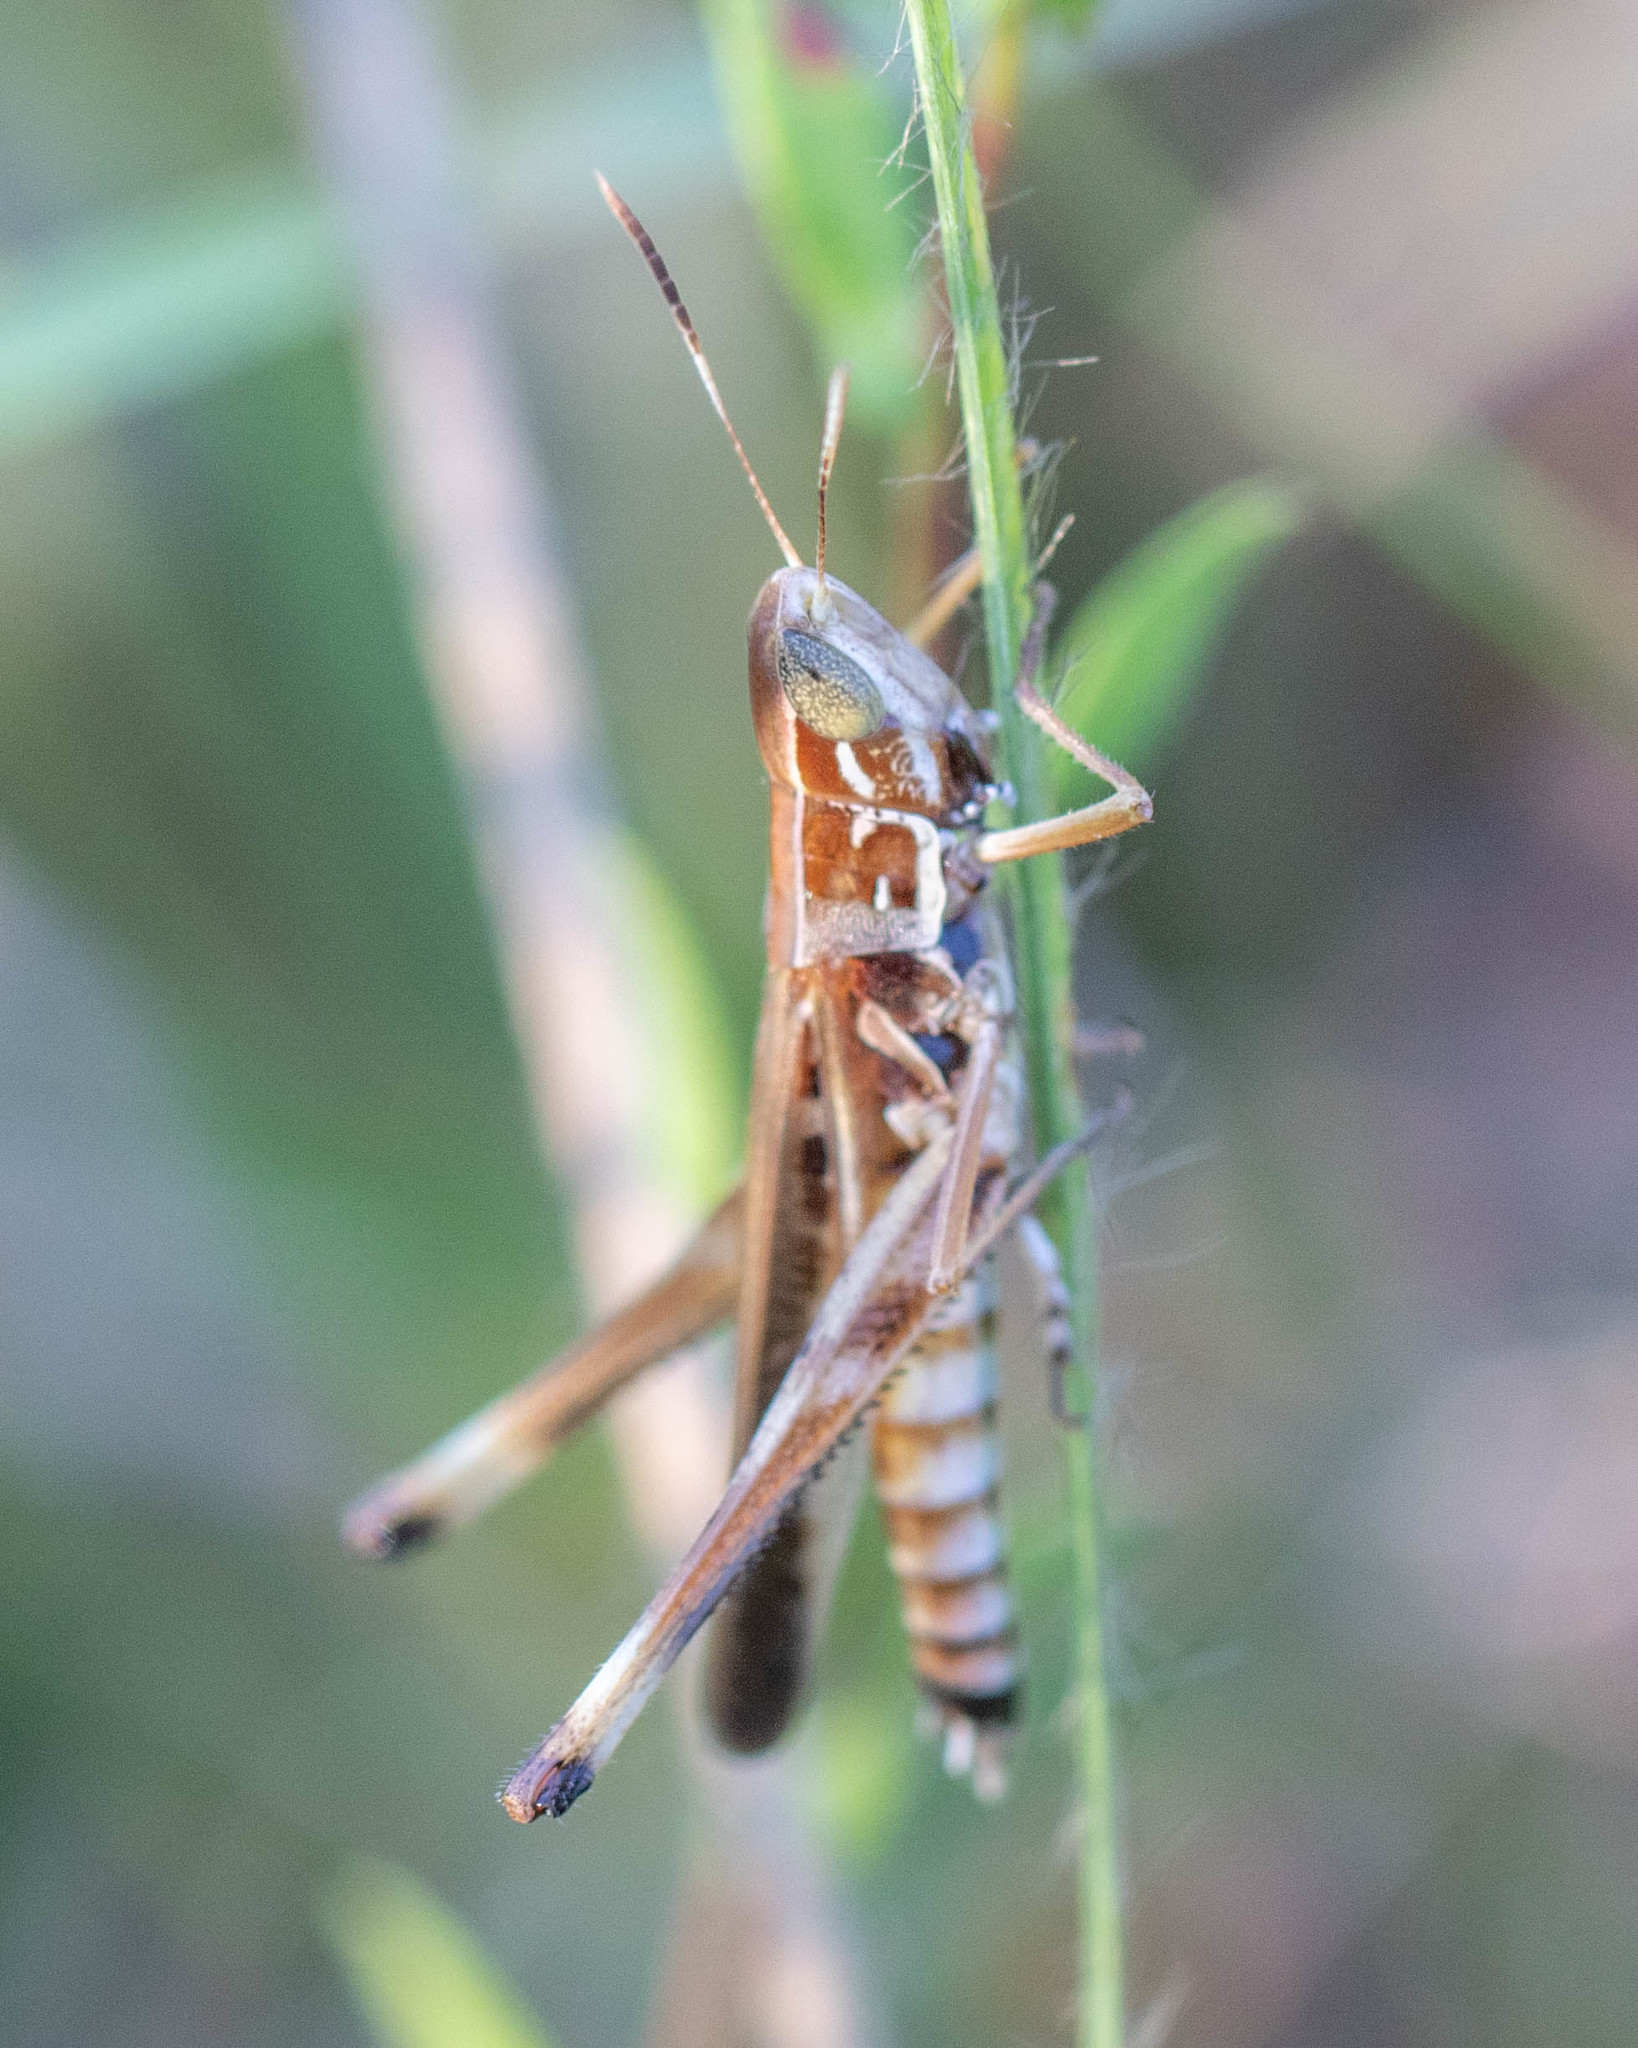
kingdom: Animalia
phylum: Arthropoda
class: Insecta
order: Orthoptera
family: Acrididae
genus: Syrbula
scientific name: Syrbula admirabilis
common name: Handsome grasshopper
